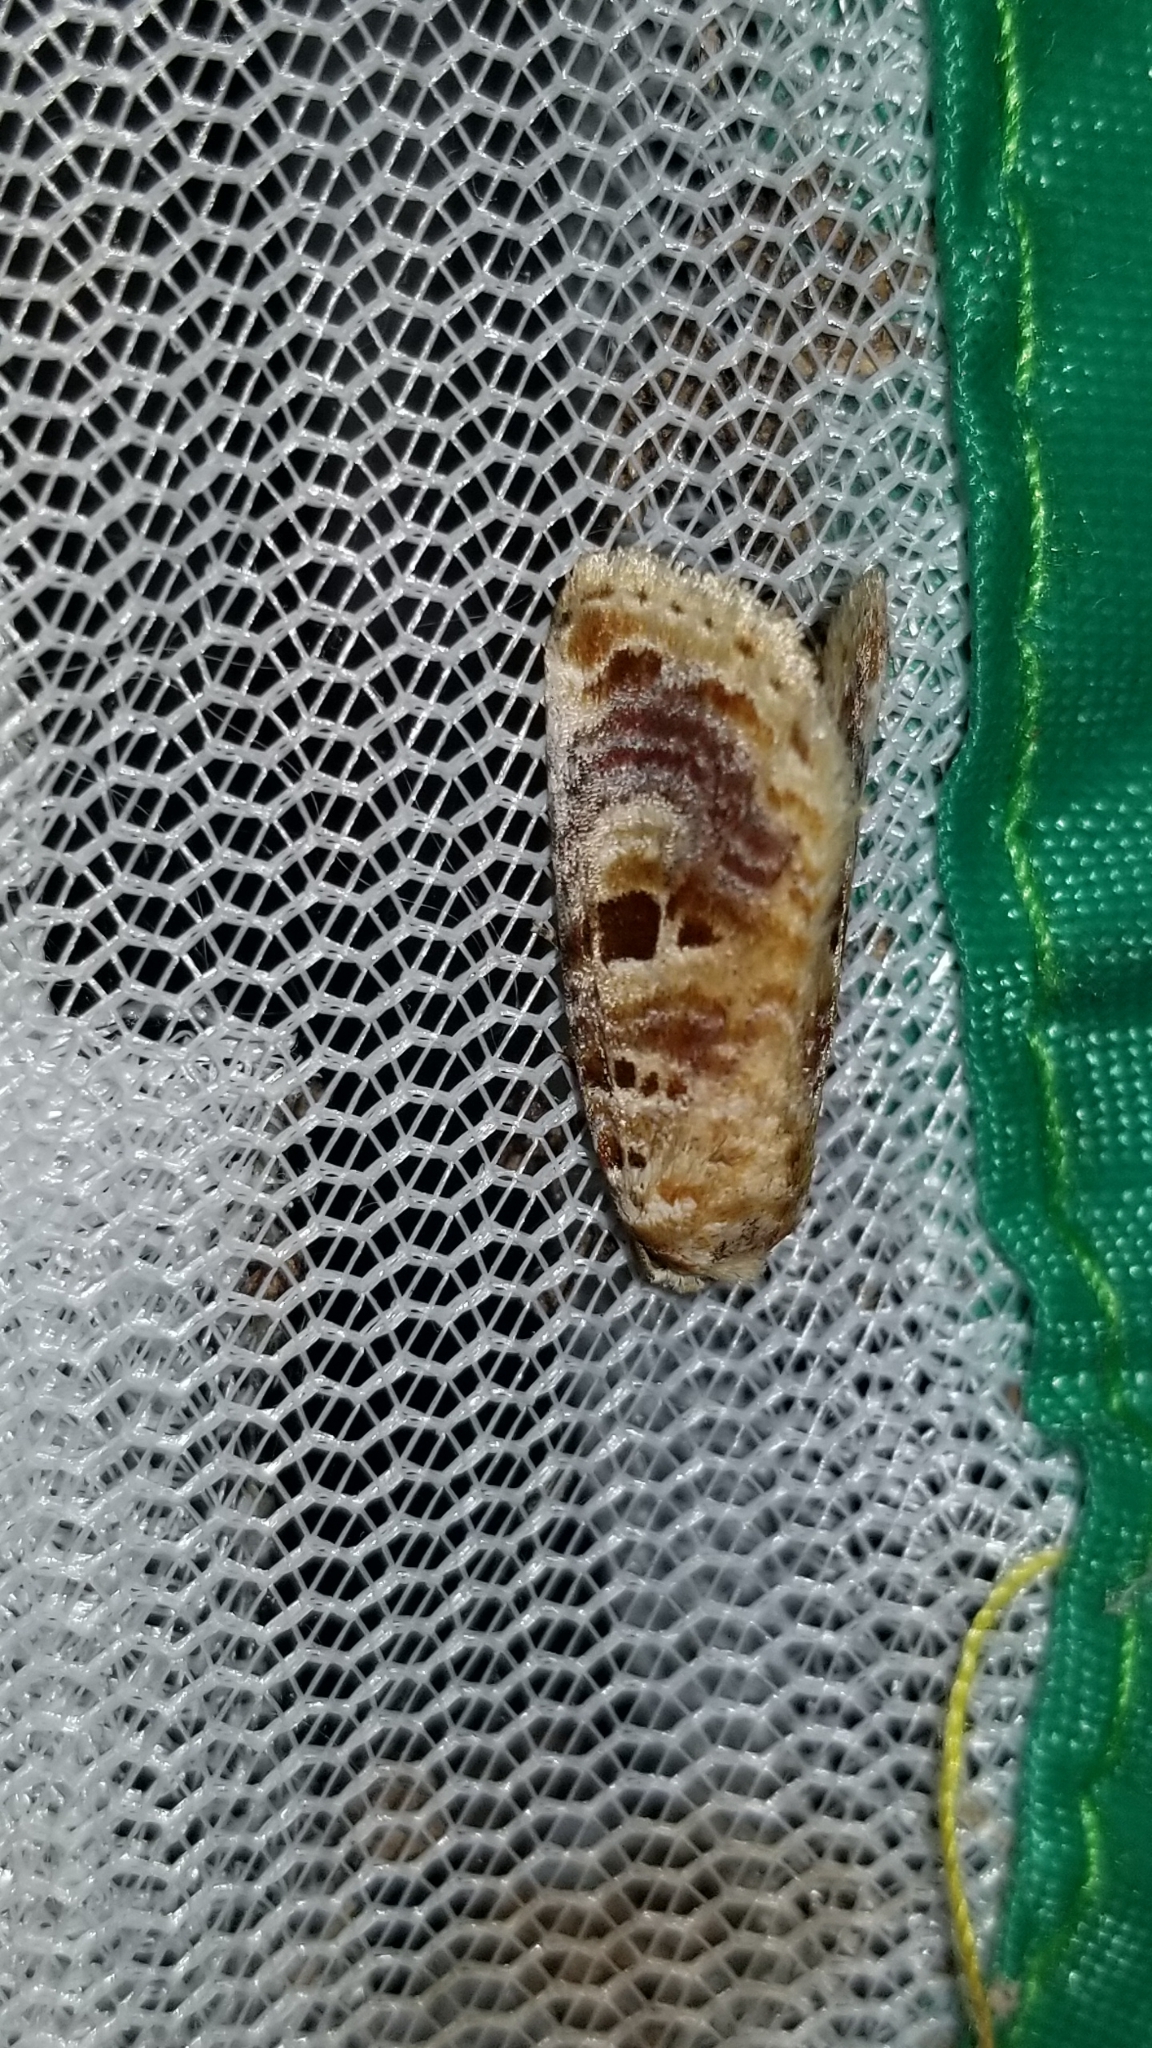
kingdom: Animalia
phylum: Arthropoda
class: Insecta
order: Lepidoptera
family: Noctuidae
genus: Diastema
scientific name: Diastema tigris
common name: Lantana moth
